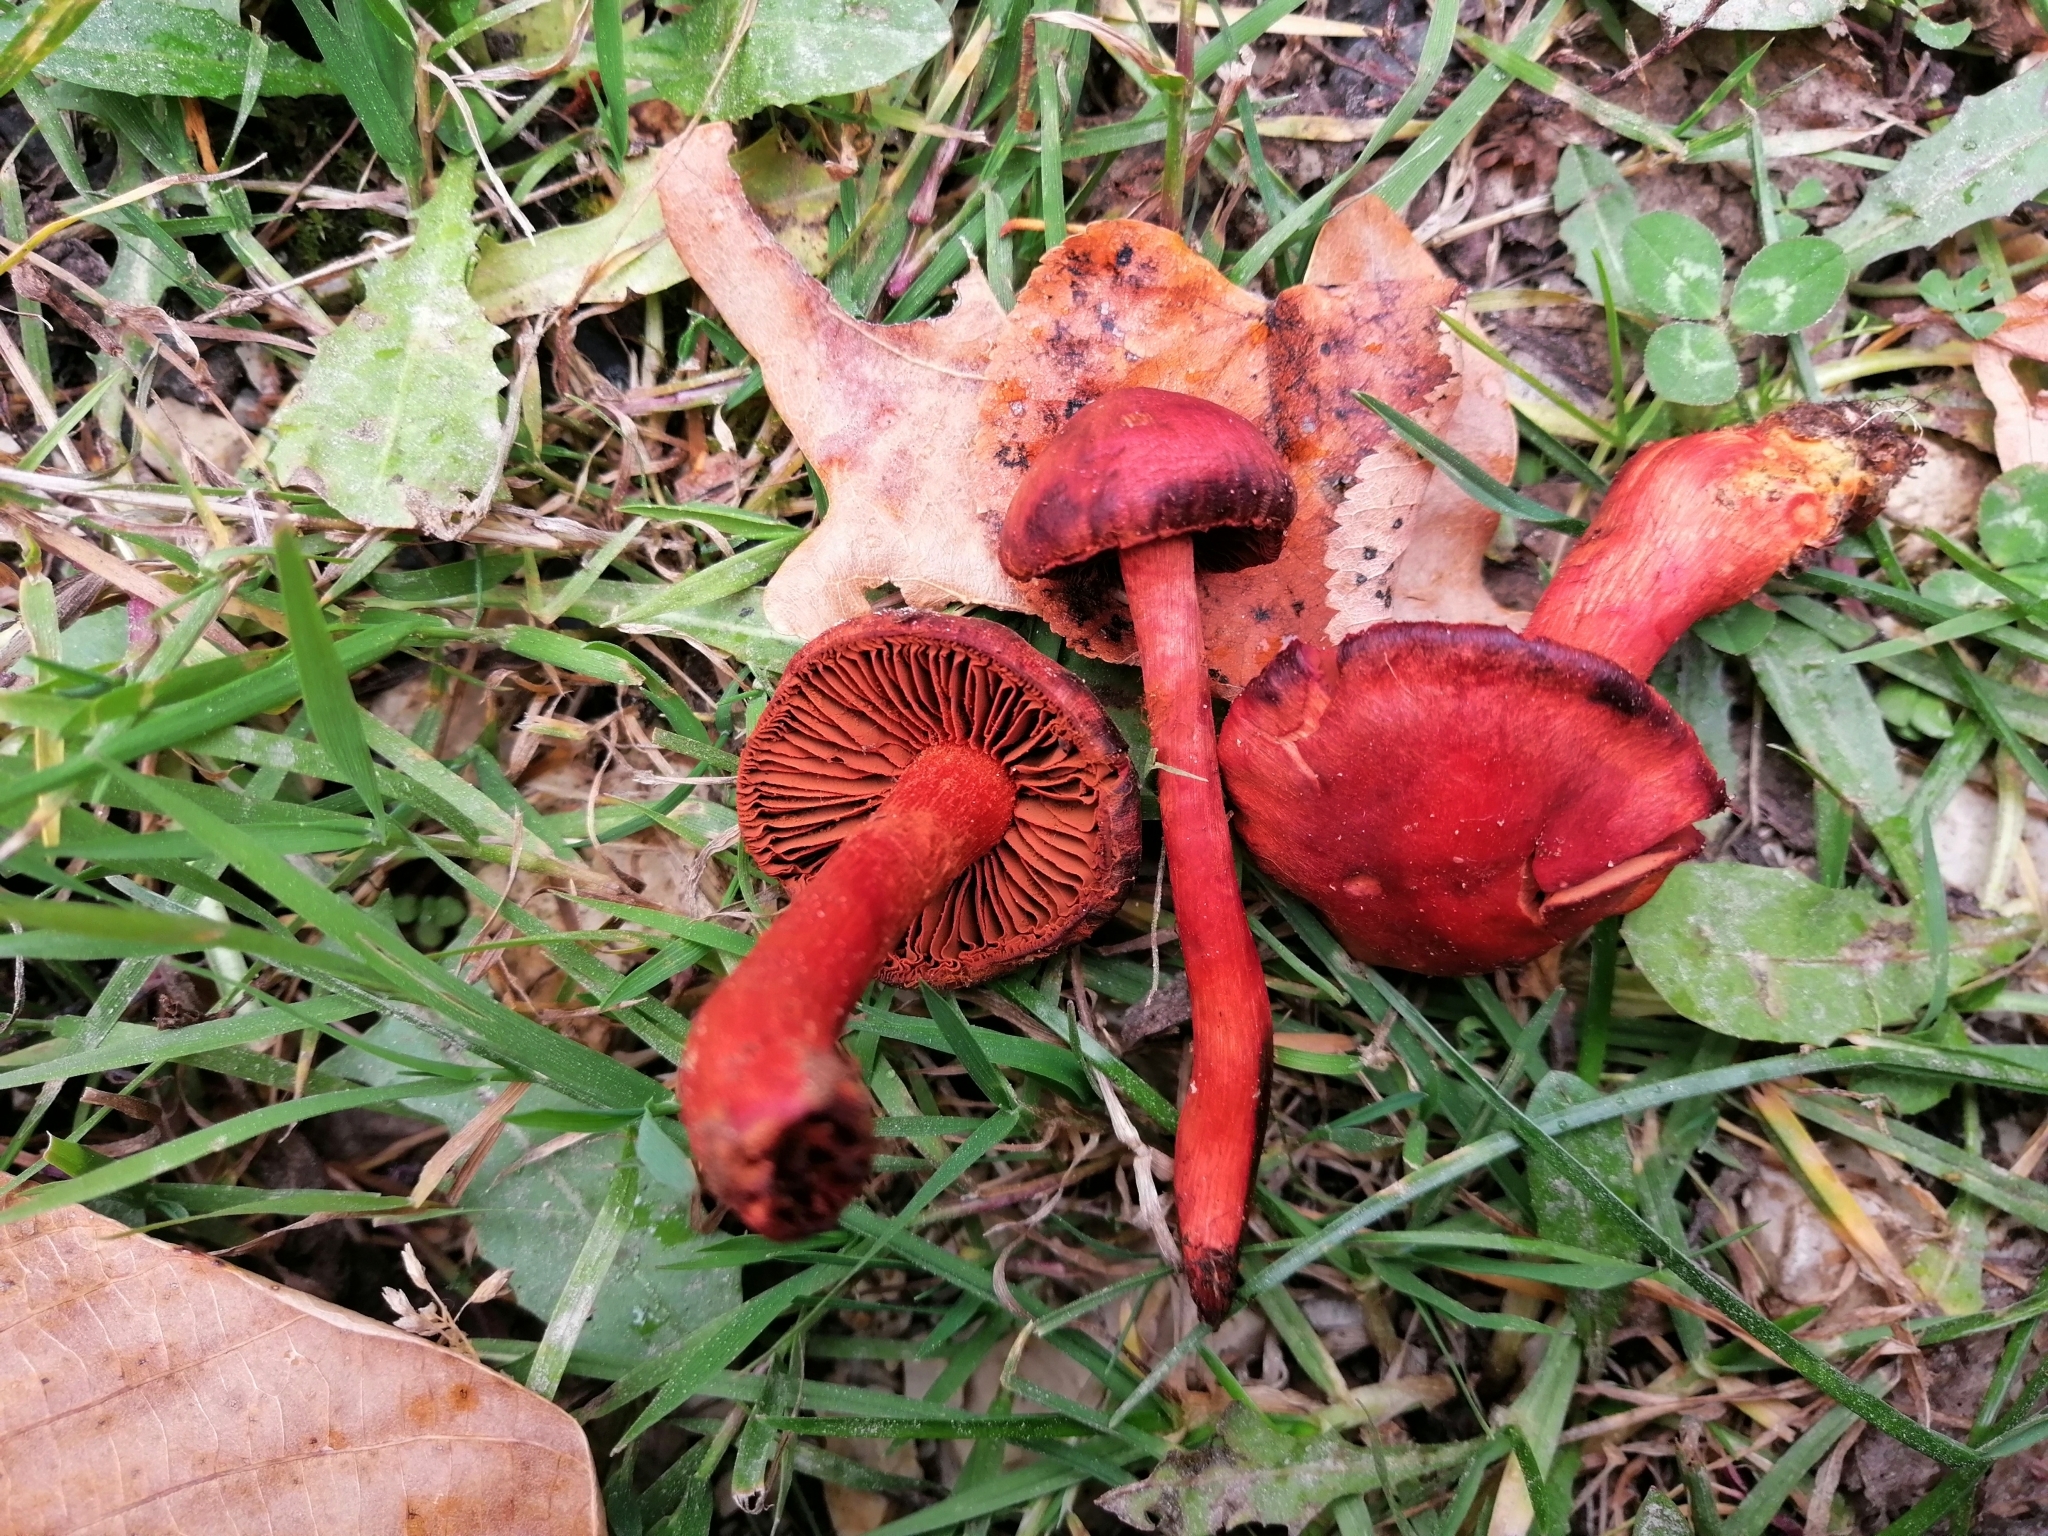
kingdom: Fungi
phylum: Basidiomycota
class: Agaricomycetes
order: Agaricales
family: Cortinariaceae
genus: Cortinarius
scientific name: Cortinarius sanguineus
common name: Bloodred webcap
